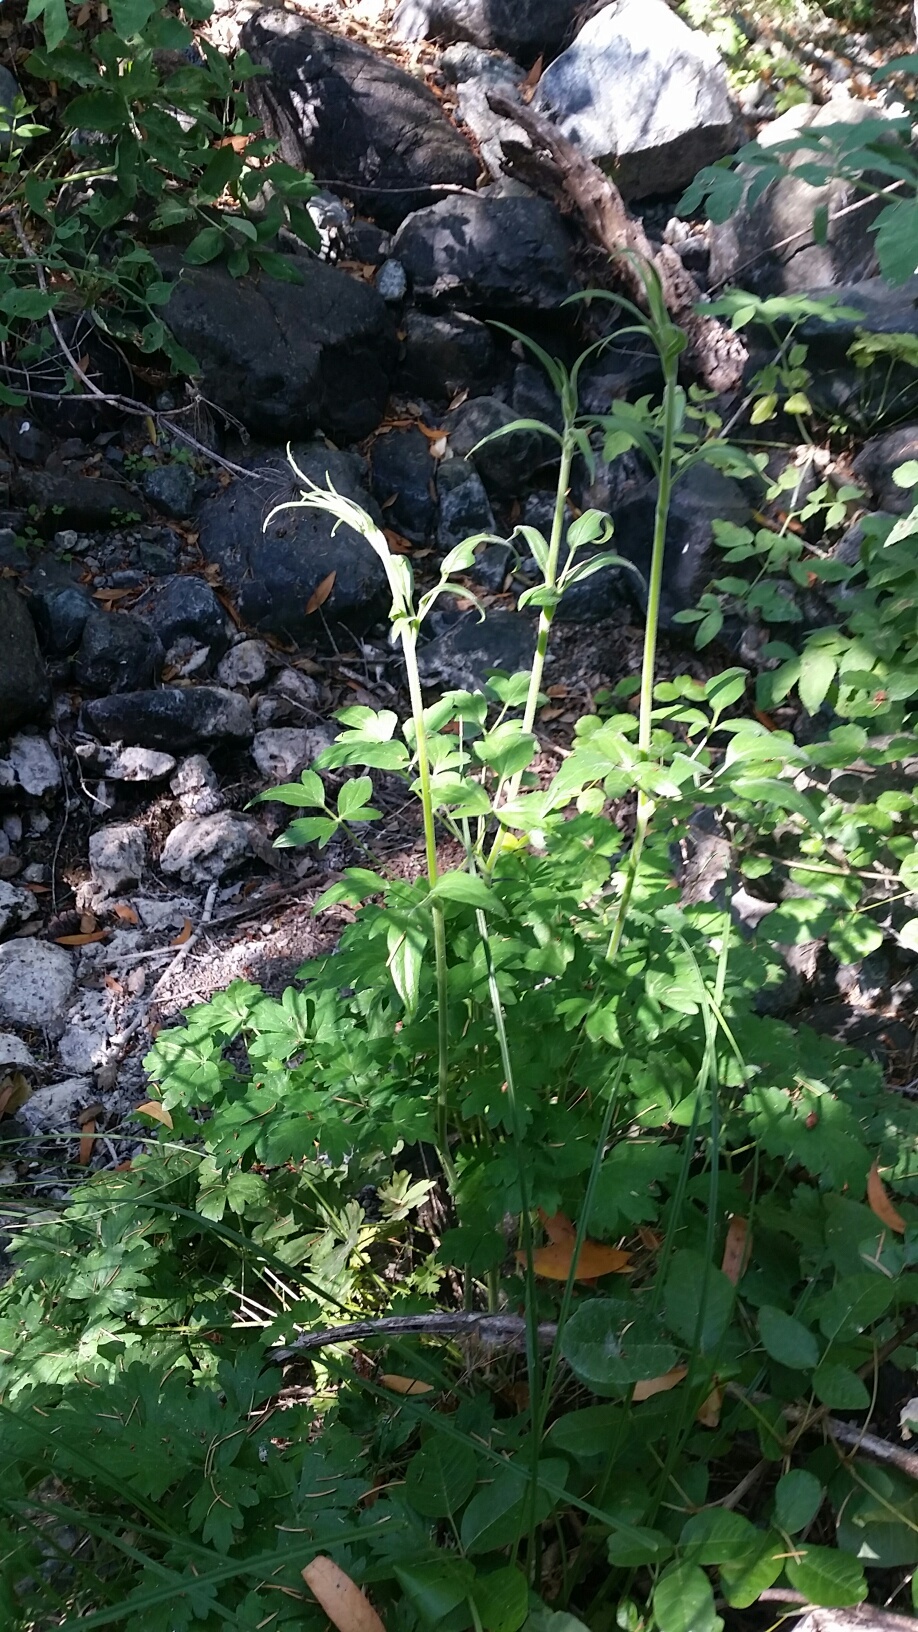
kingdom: Plantae
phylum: Tracheophyta
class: Magnoliopsida
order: Ranunculales
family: Ranunculaceae
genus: Aquilegia
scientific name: Aquilegia eximia
